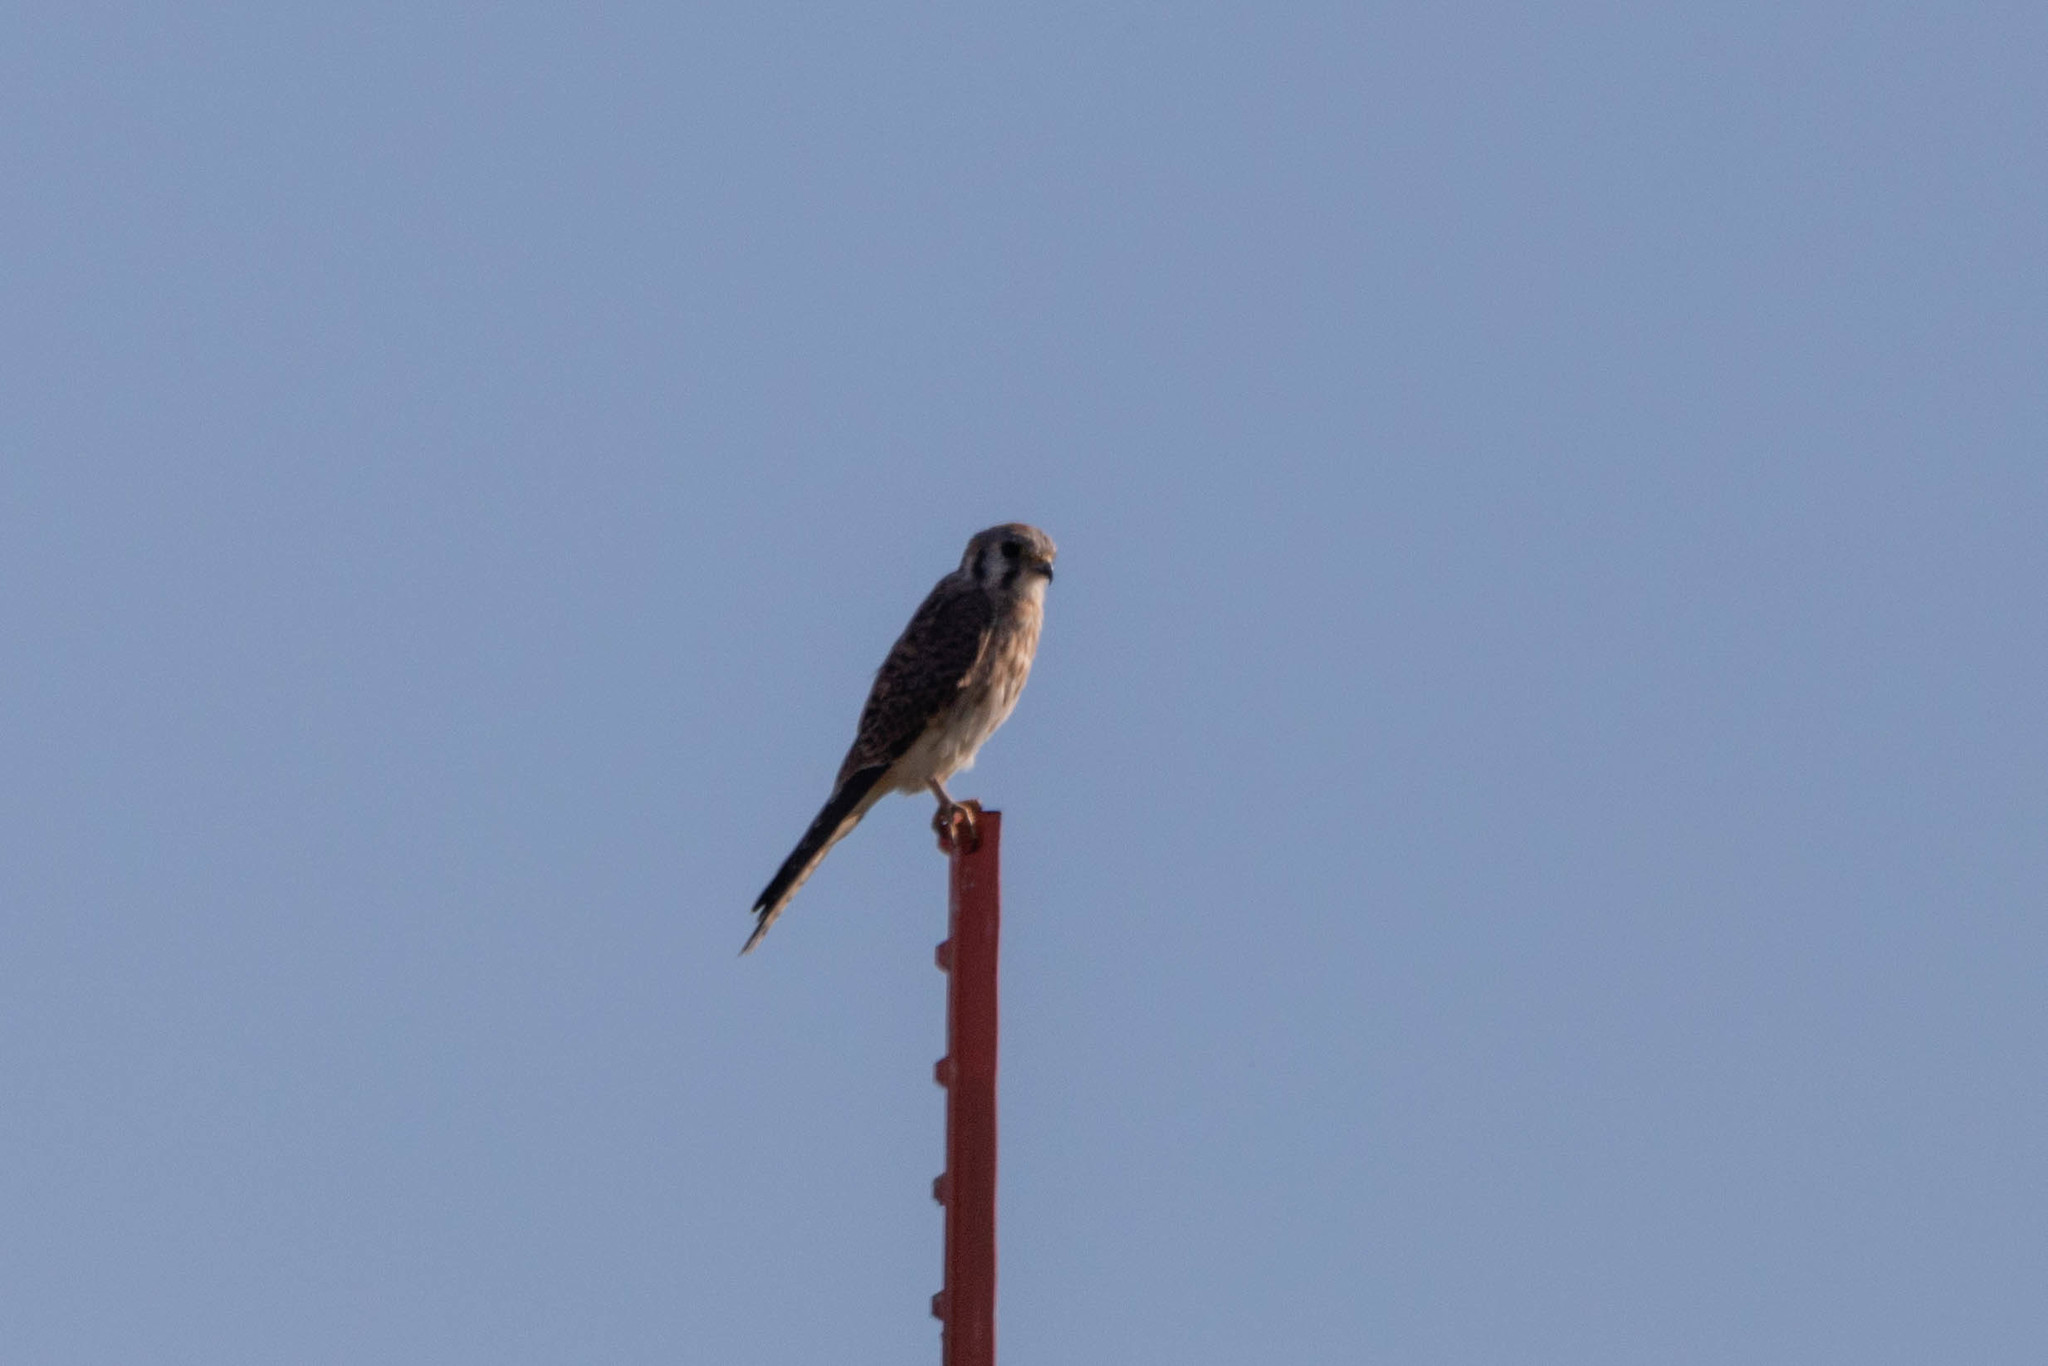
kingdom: Animalia
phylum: Chordata
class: Aves
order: Falconiformes
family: Falconidae
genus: Falco
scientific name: Falco sparverius
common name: American kestrel
